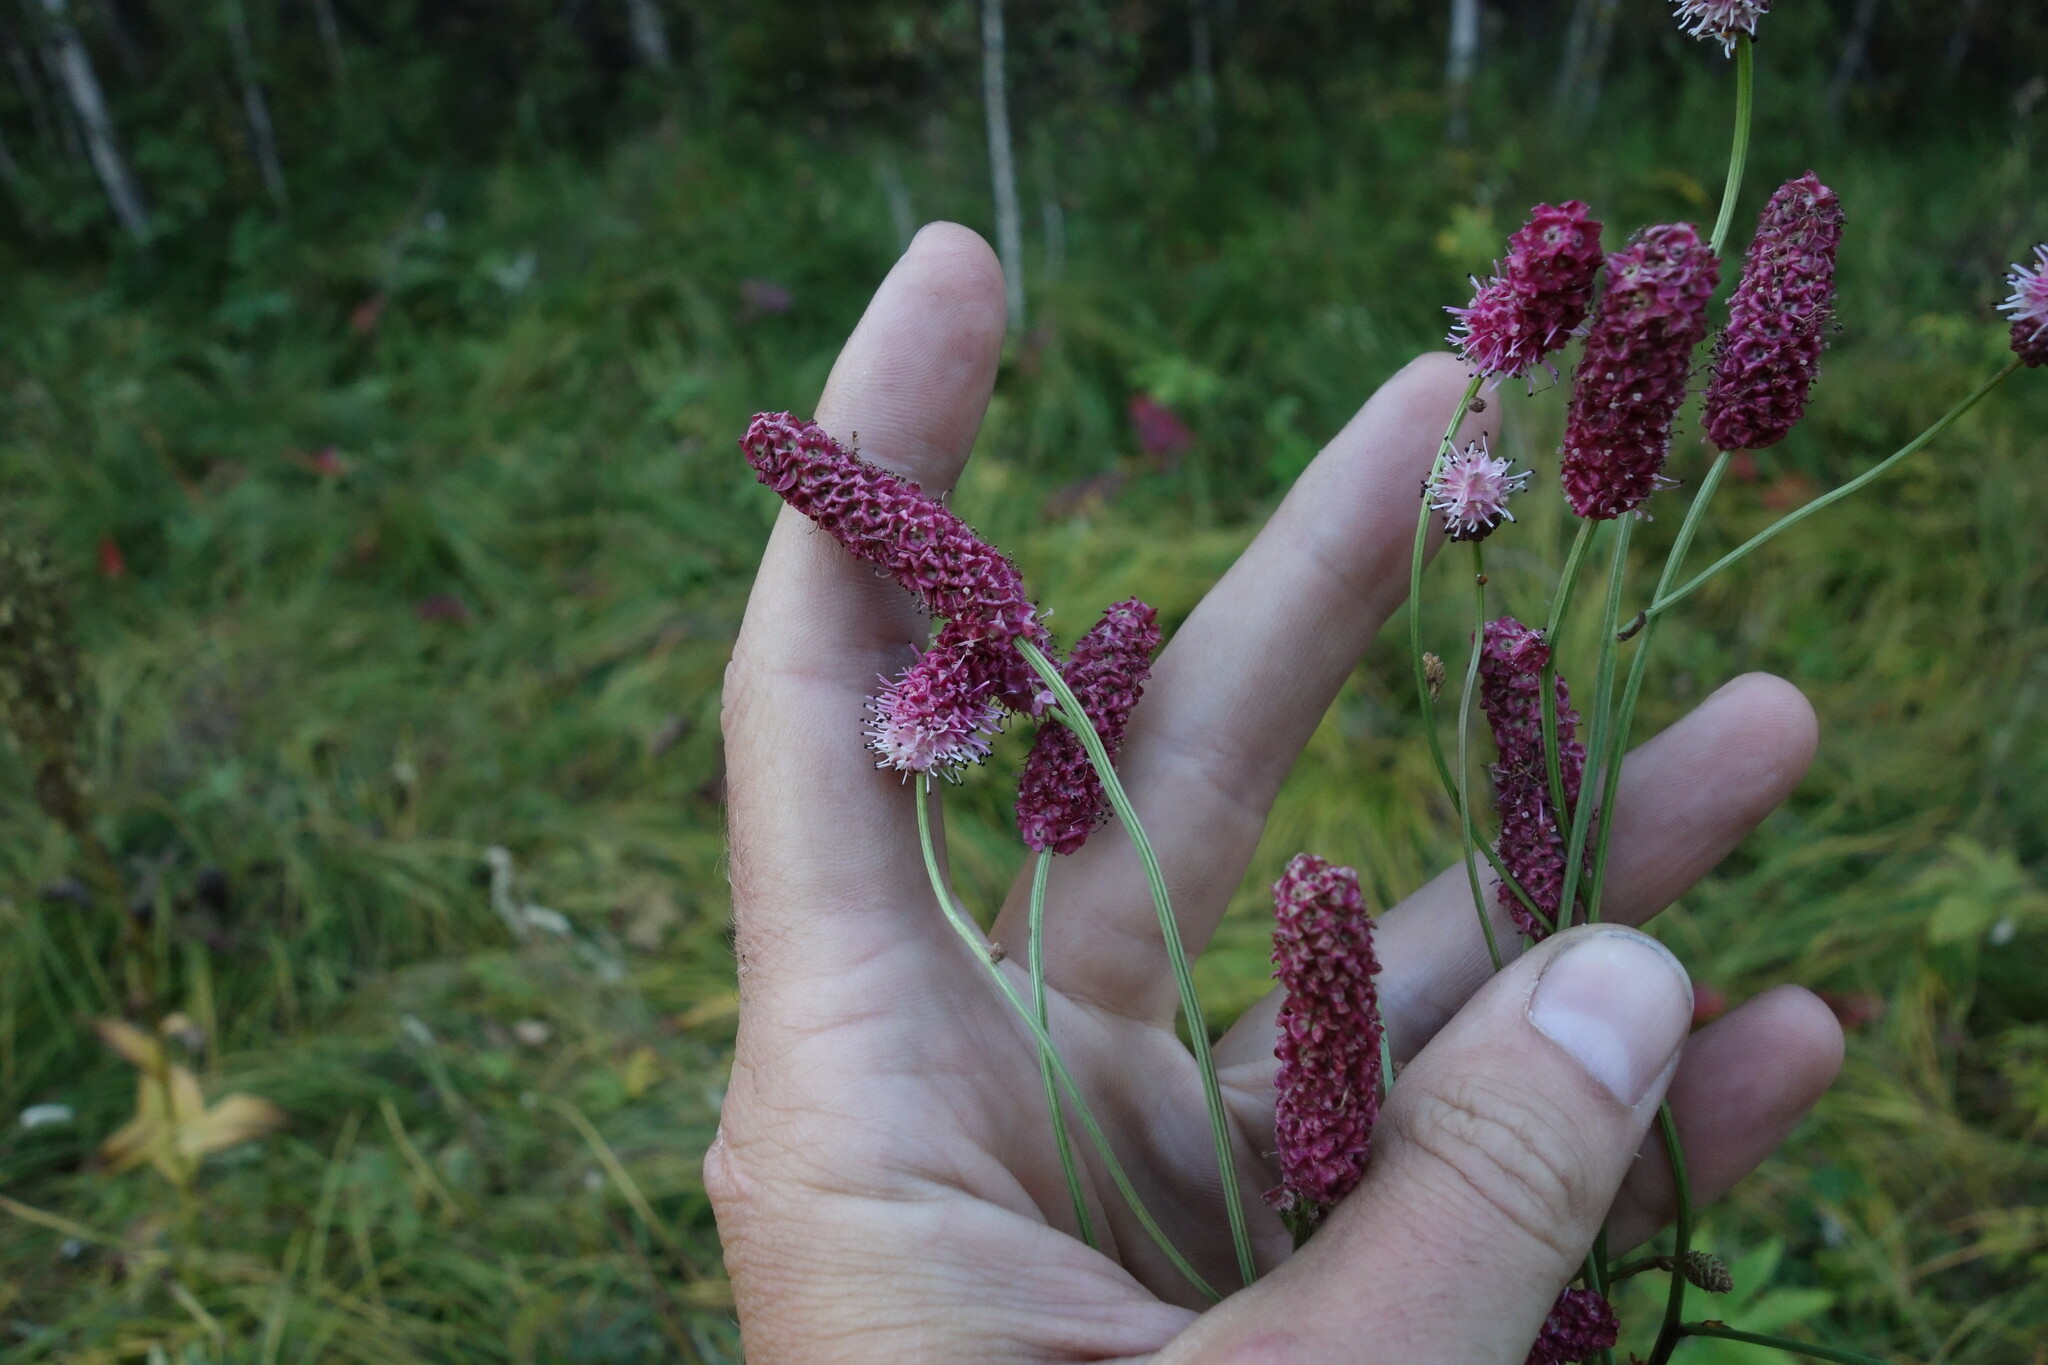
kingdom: Plantae
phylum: Tracheophyta
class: Magnoliopsida
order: Rosales
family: Rosaceae
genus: Poterium
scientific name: Poterium tenuifolium
